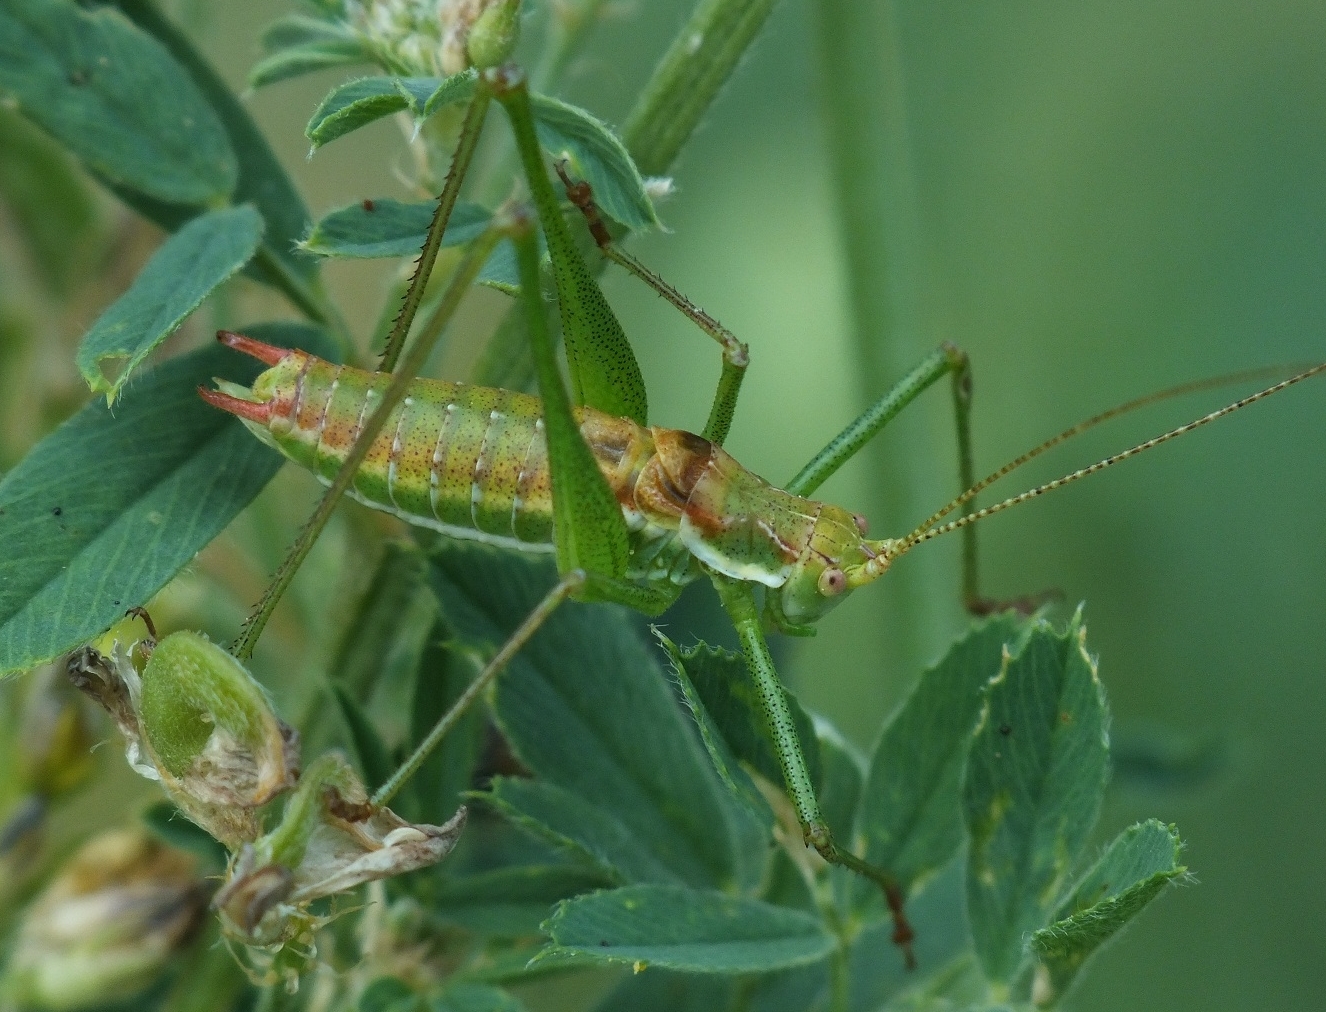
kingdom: Animalia
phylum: Arthropoda
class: Insecta
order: Orthoptera
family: Tettigoniidae
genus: Leptophyes
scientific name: Leptophyes albovittata
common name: Striped bush-cricket
